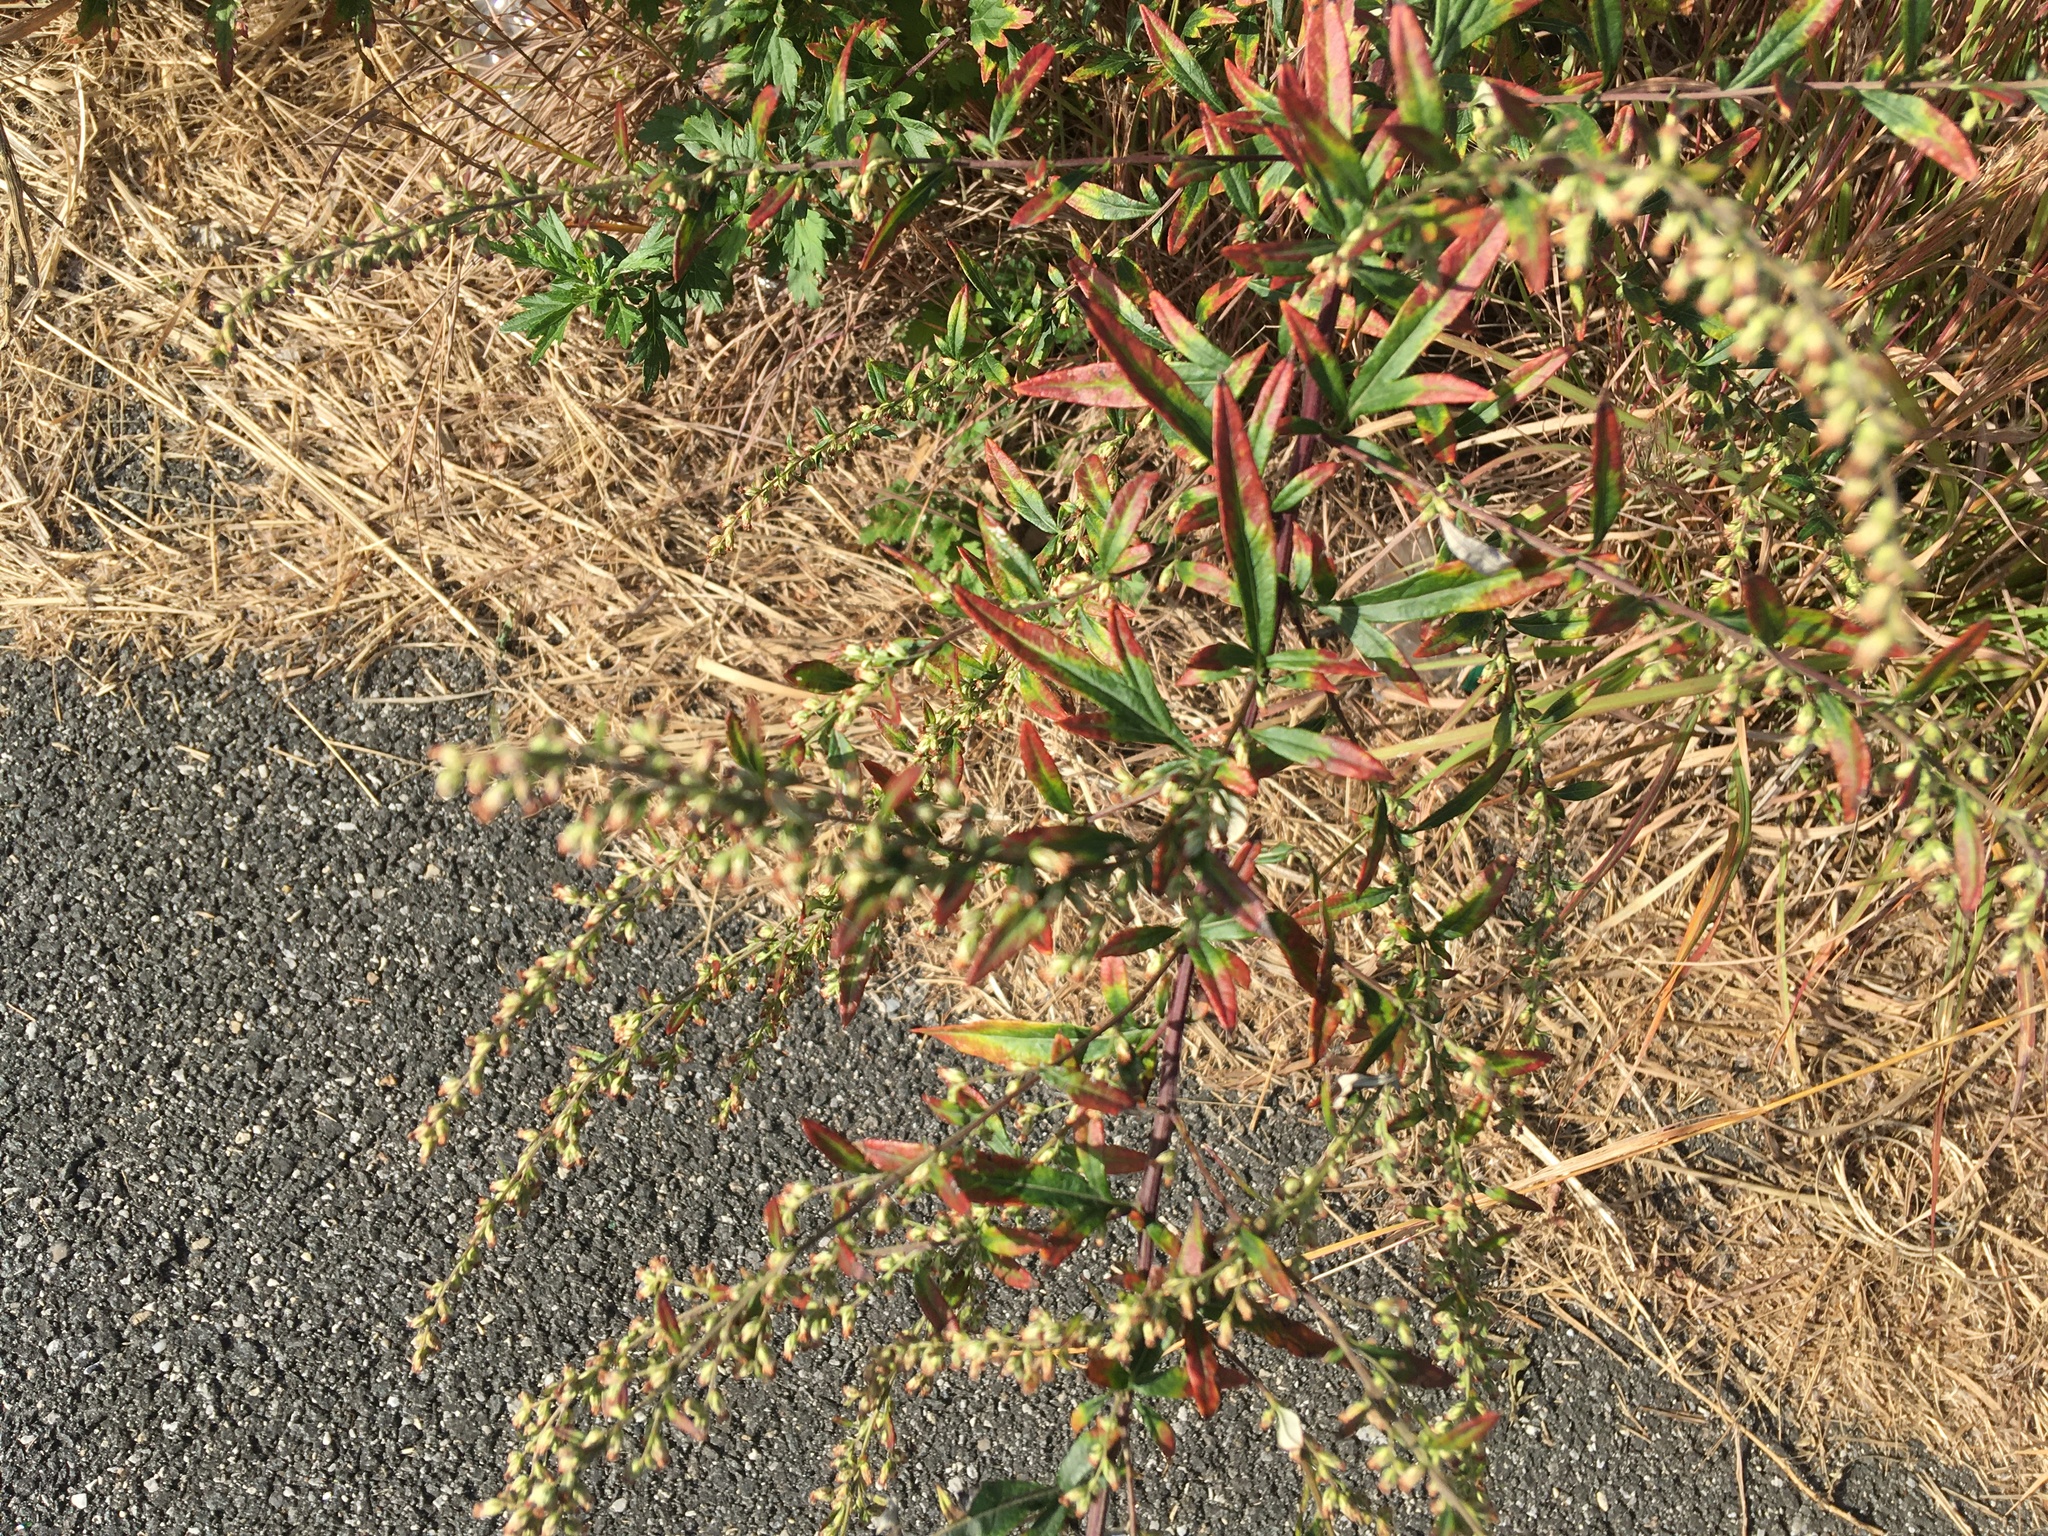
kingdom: Plantae
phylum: Tracheophyta
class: Magnoliopsida
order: Asterales
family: Asteraceae
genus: Artemisia
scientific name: Artemisia vulgaris
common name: Mugwort
